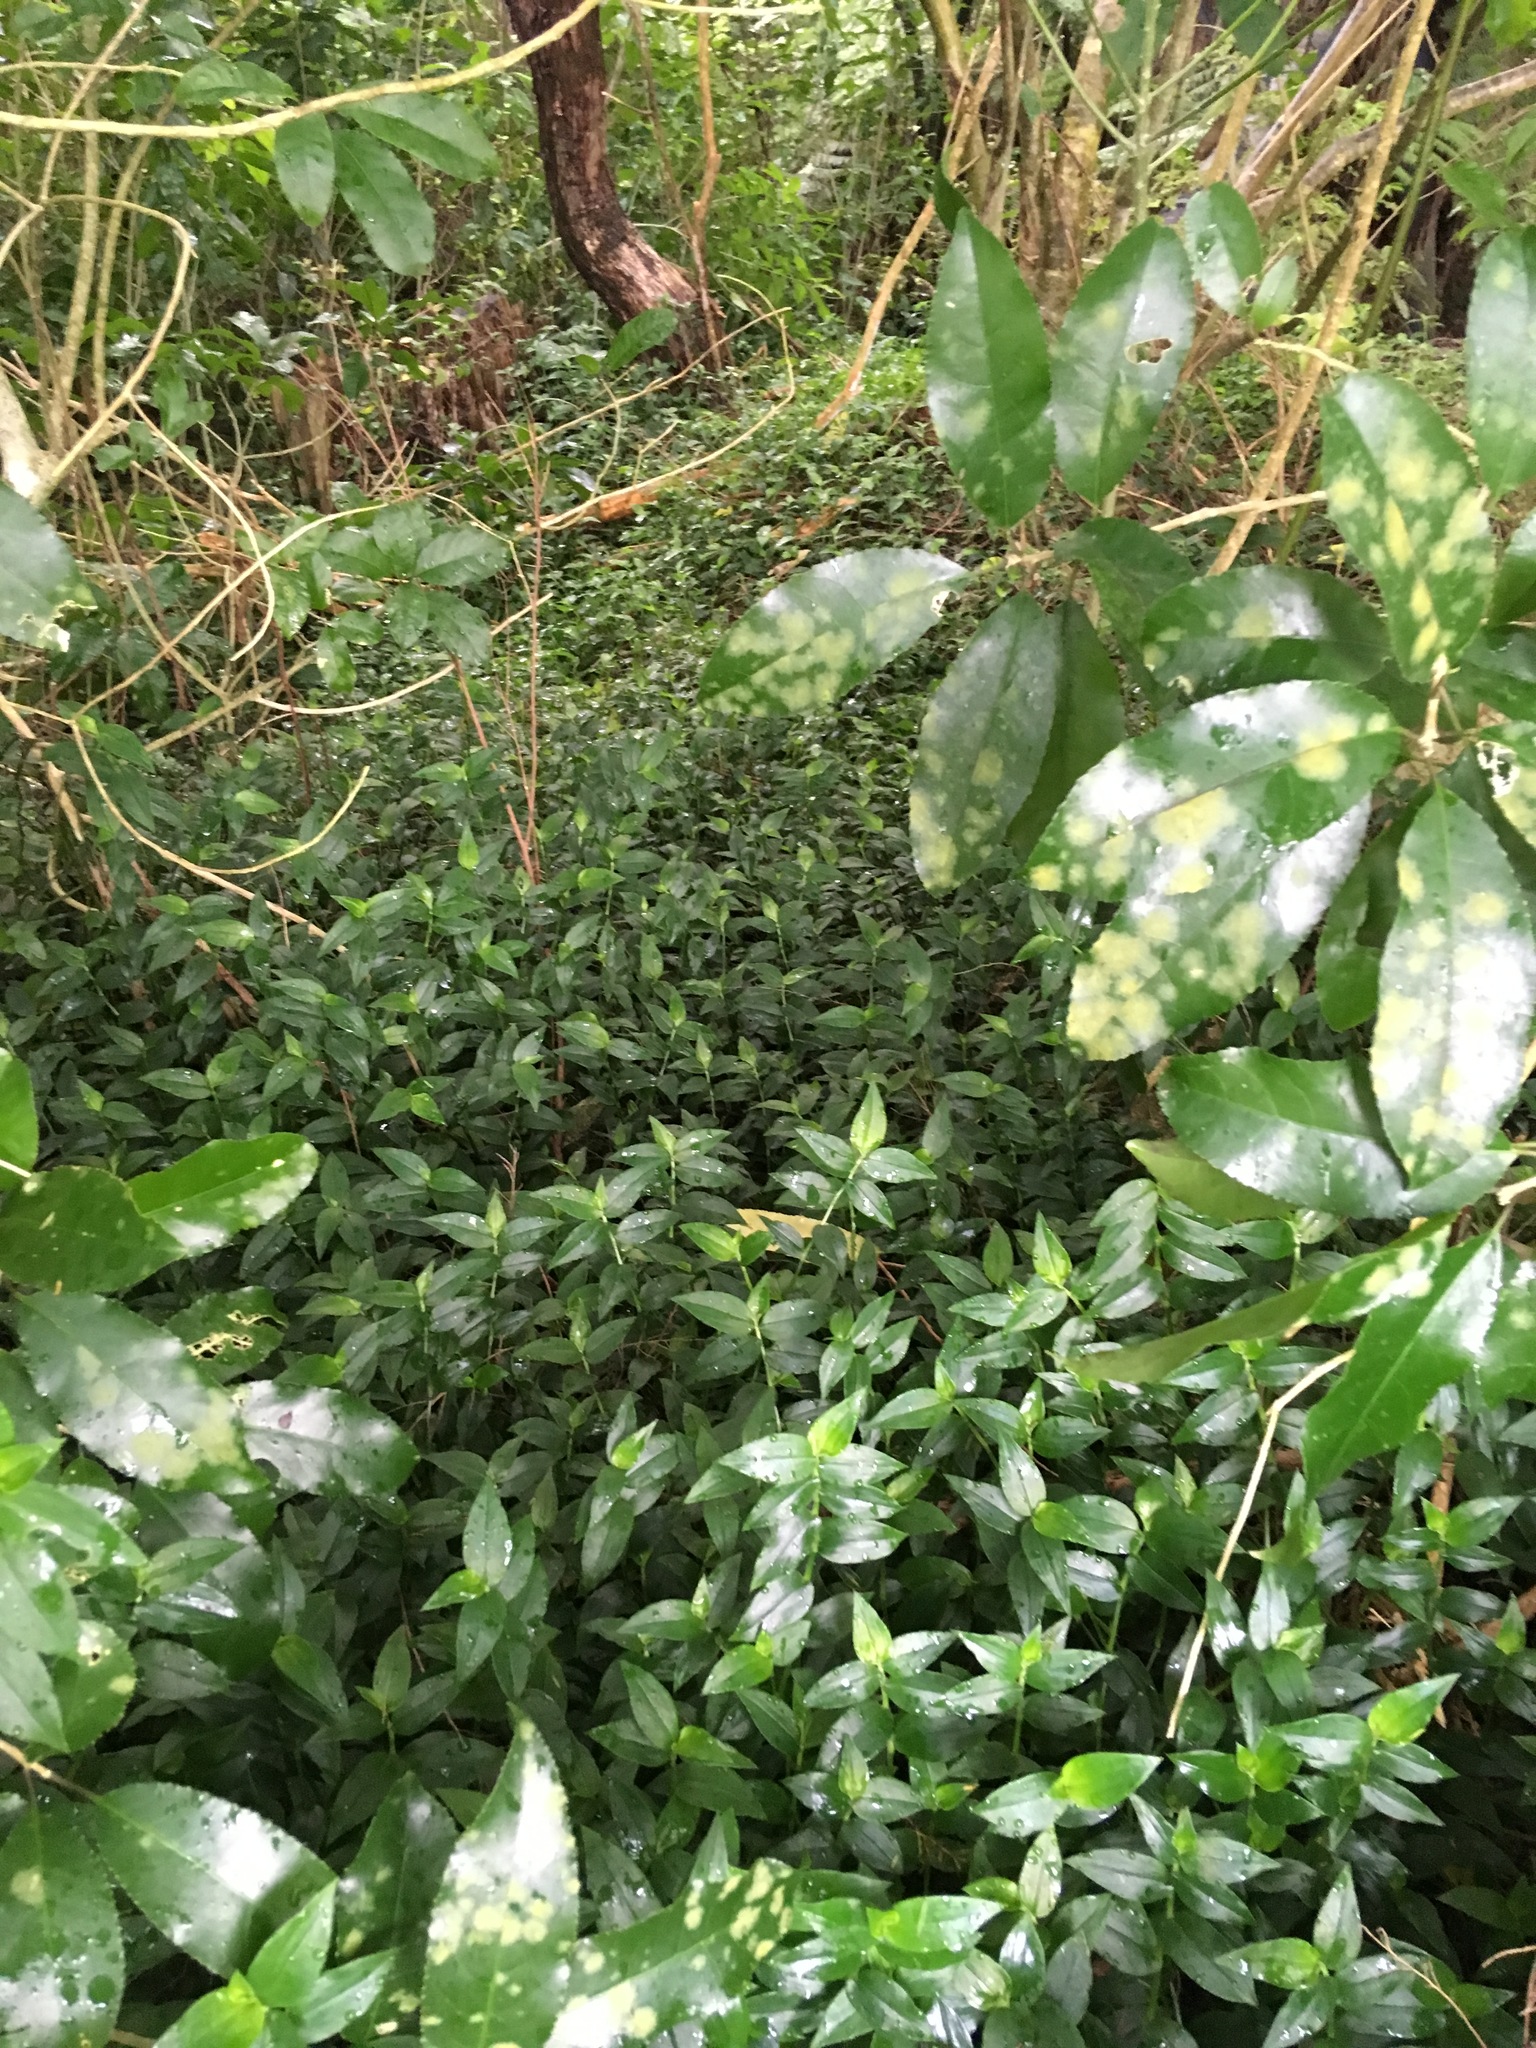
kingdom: Plantae
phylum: Tracheophyta
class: Liliopsida
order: Commelinales
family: Commelinaceae
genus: Tradescantia
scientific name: Tradescantia fluminensis
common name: Wandering-jew
